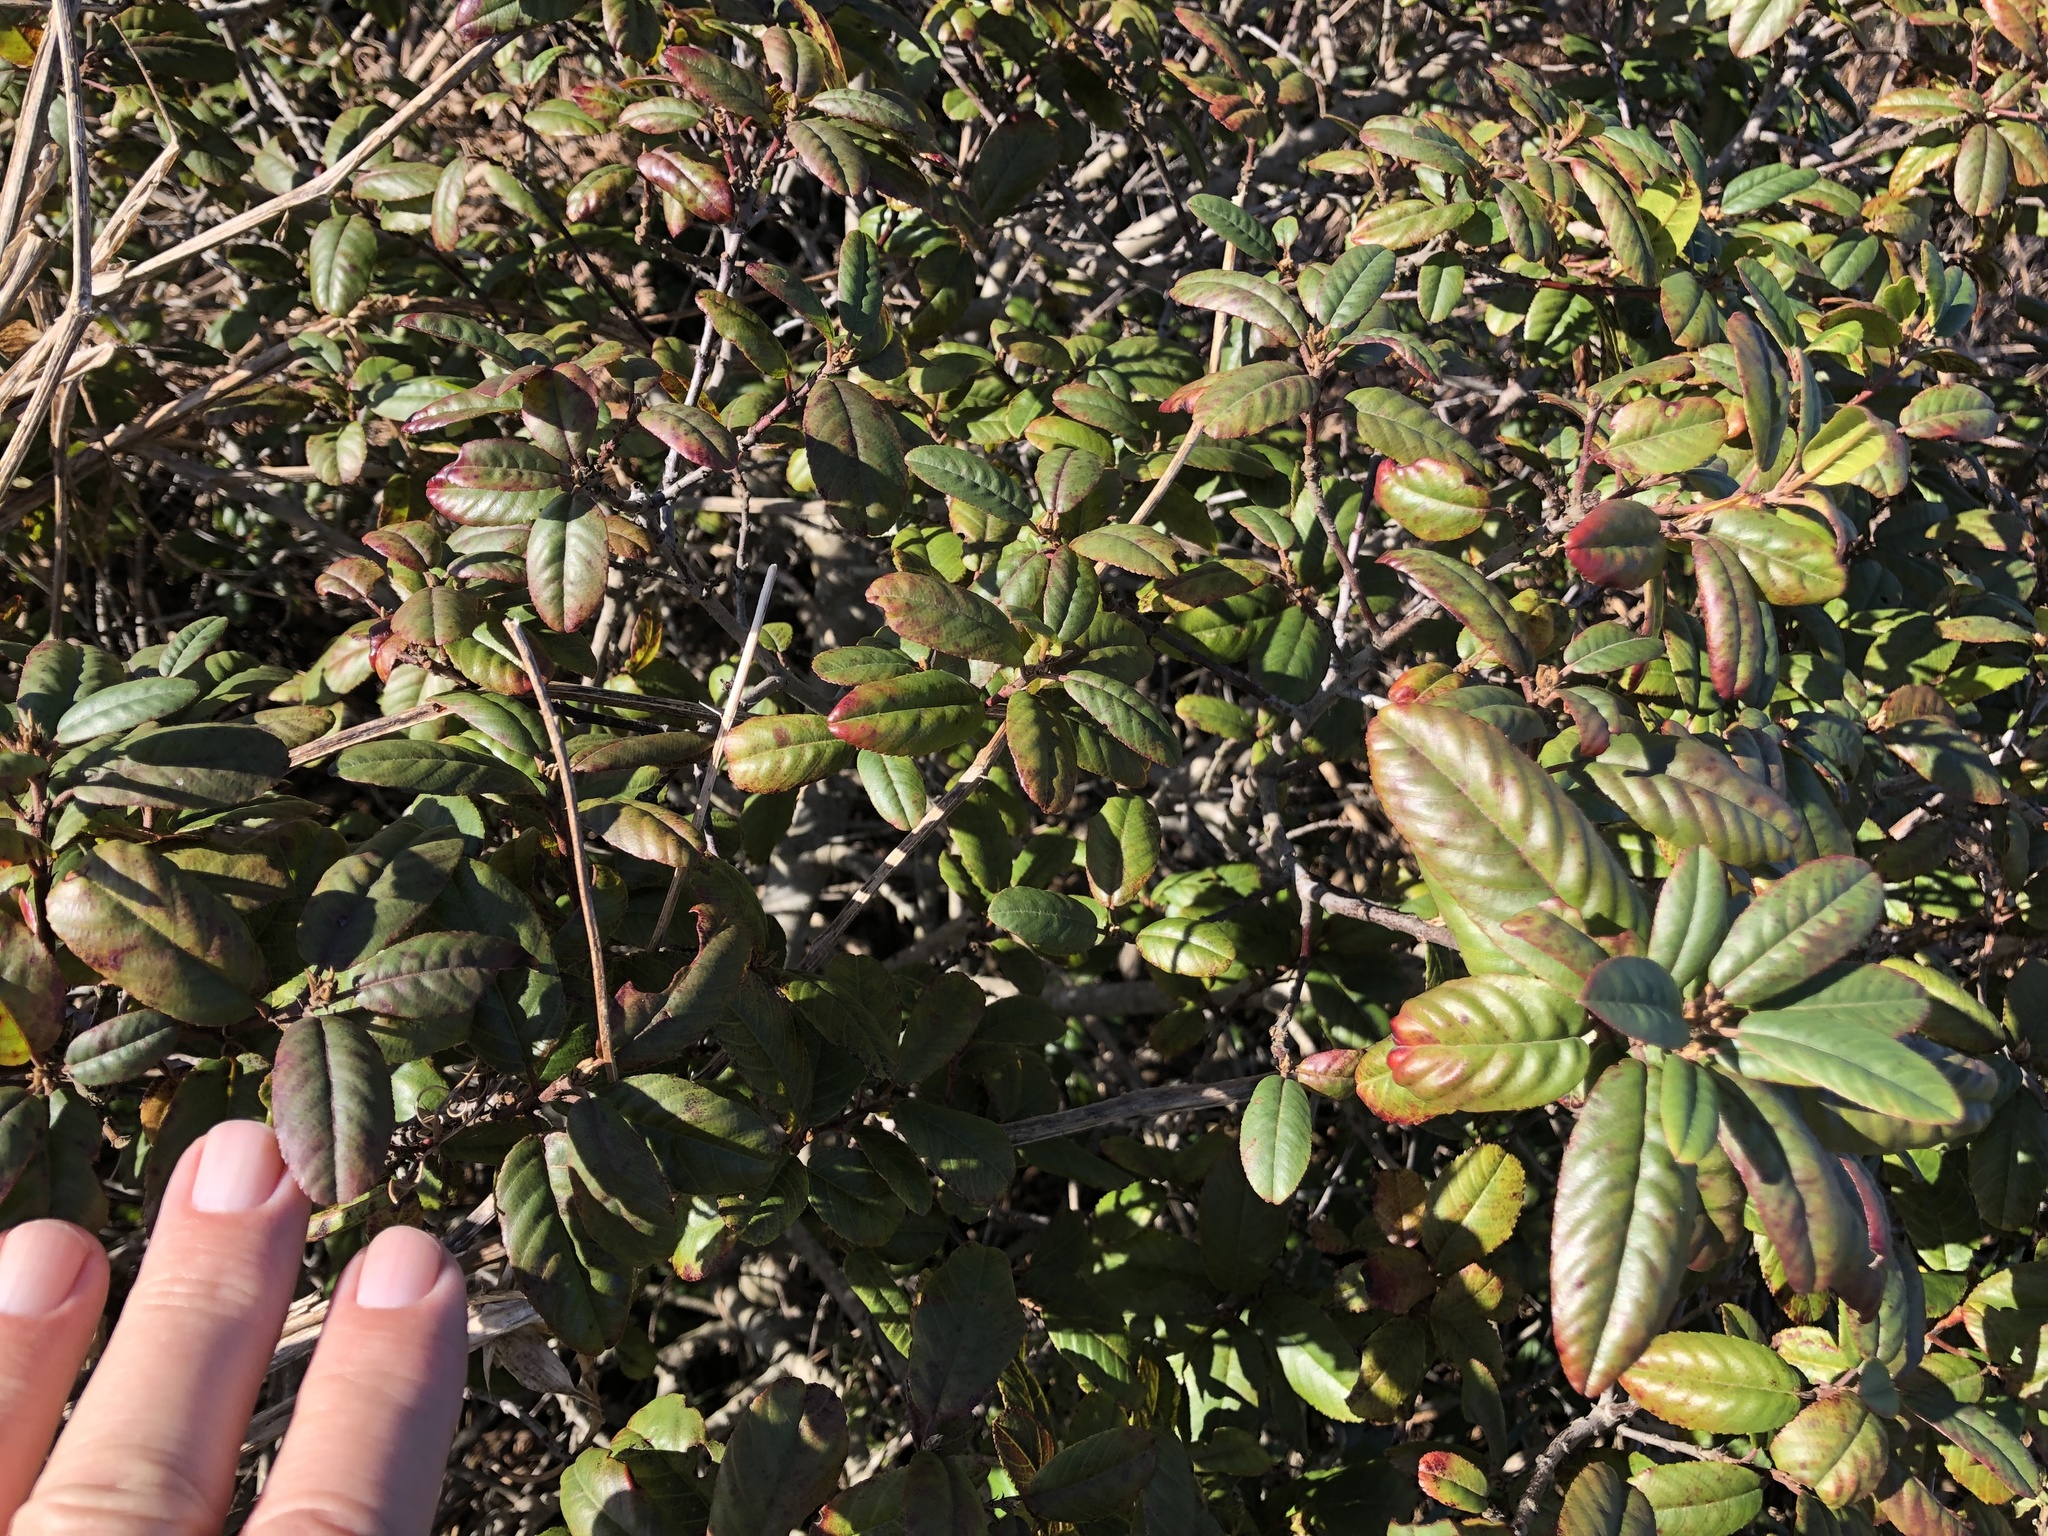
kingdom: Plantae
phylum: Tracheophyta
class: Magnoliopsida
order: Rosales
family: Rhamnaceae
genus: Frangula
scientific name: Frangula californica
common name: California buckthorn
